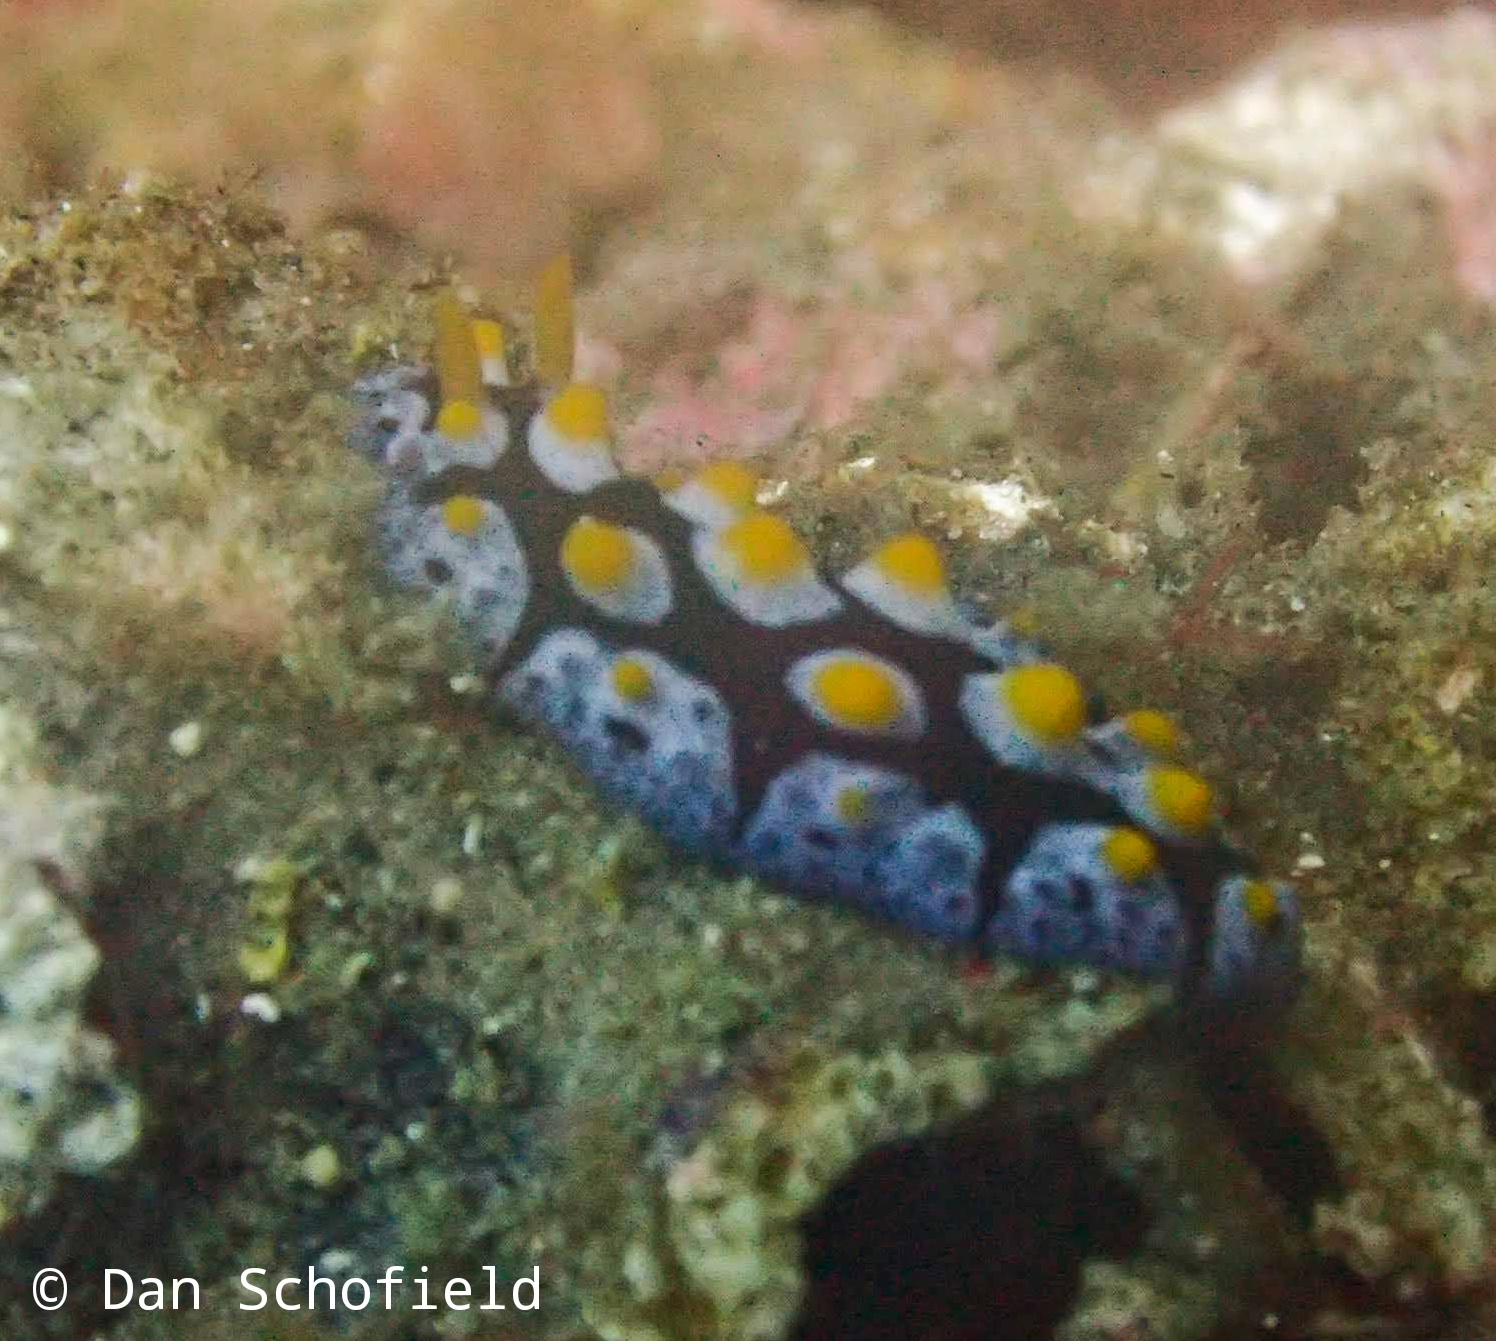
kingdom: Animalia
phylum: Mollusca
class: Gastropoda
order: Nudibranchia
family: Phyllidiidae
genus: Phyllidia
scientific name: Phyllidia picta
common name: Black-rayed phyllidia
